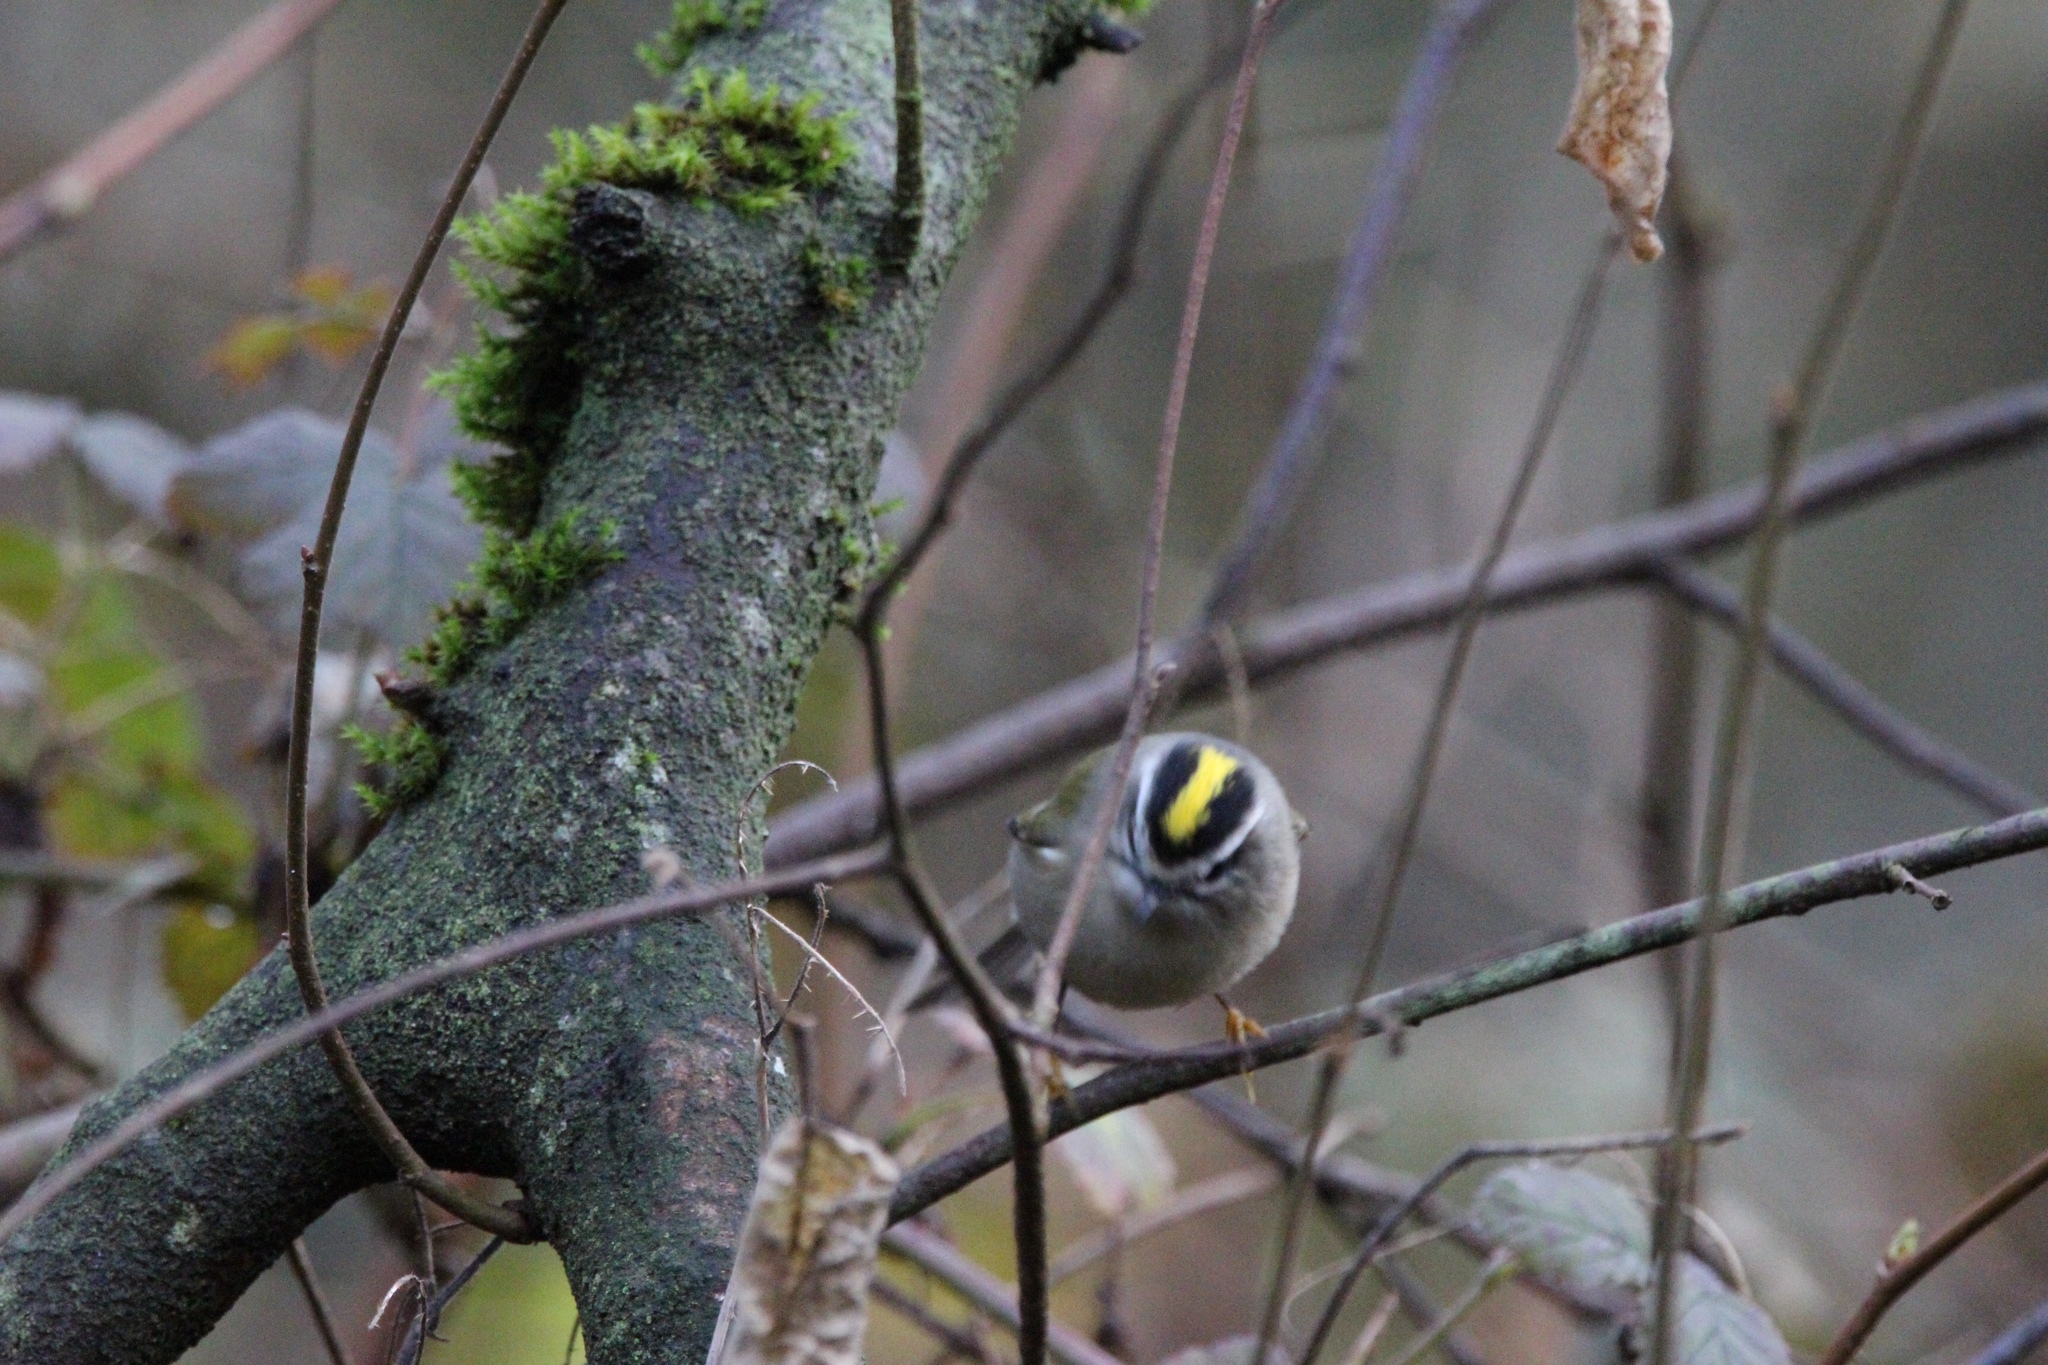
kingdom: Animalia
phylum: Chordata
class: Aves
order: Passeriformes
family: Regulidae
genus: Regulus
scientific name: Regulus satrapa
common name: Golden-crowned kinglet
